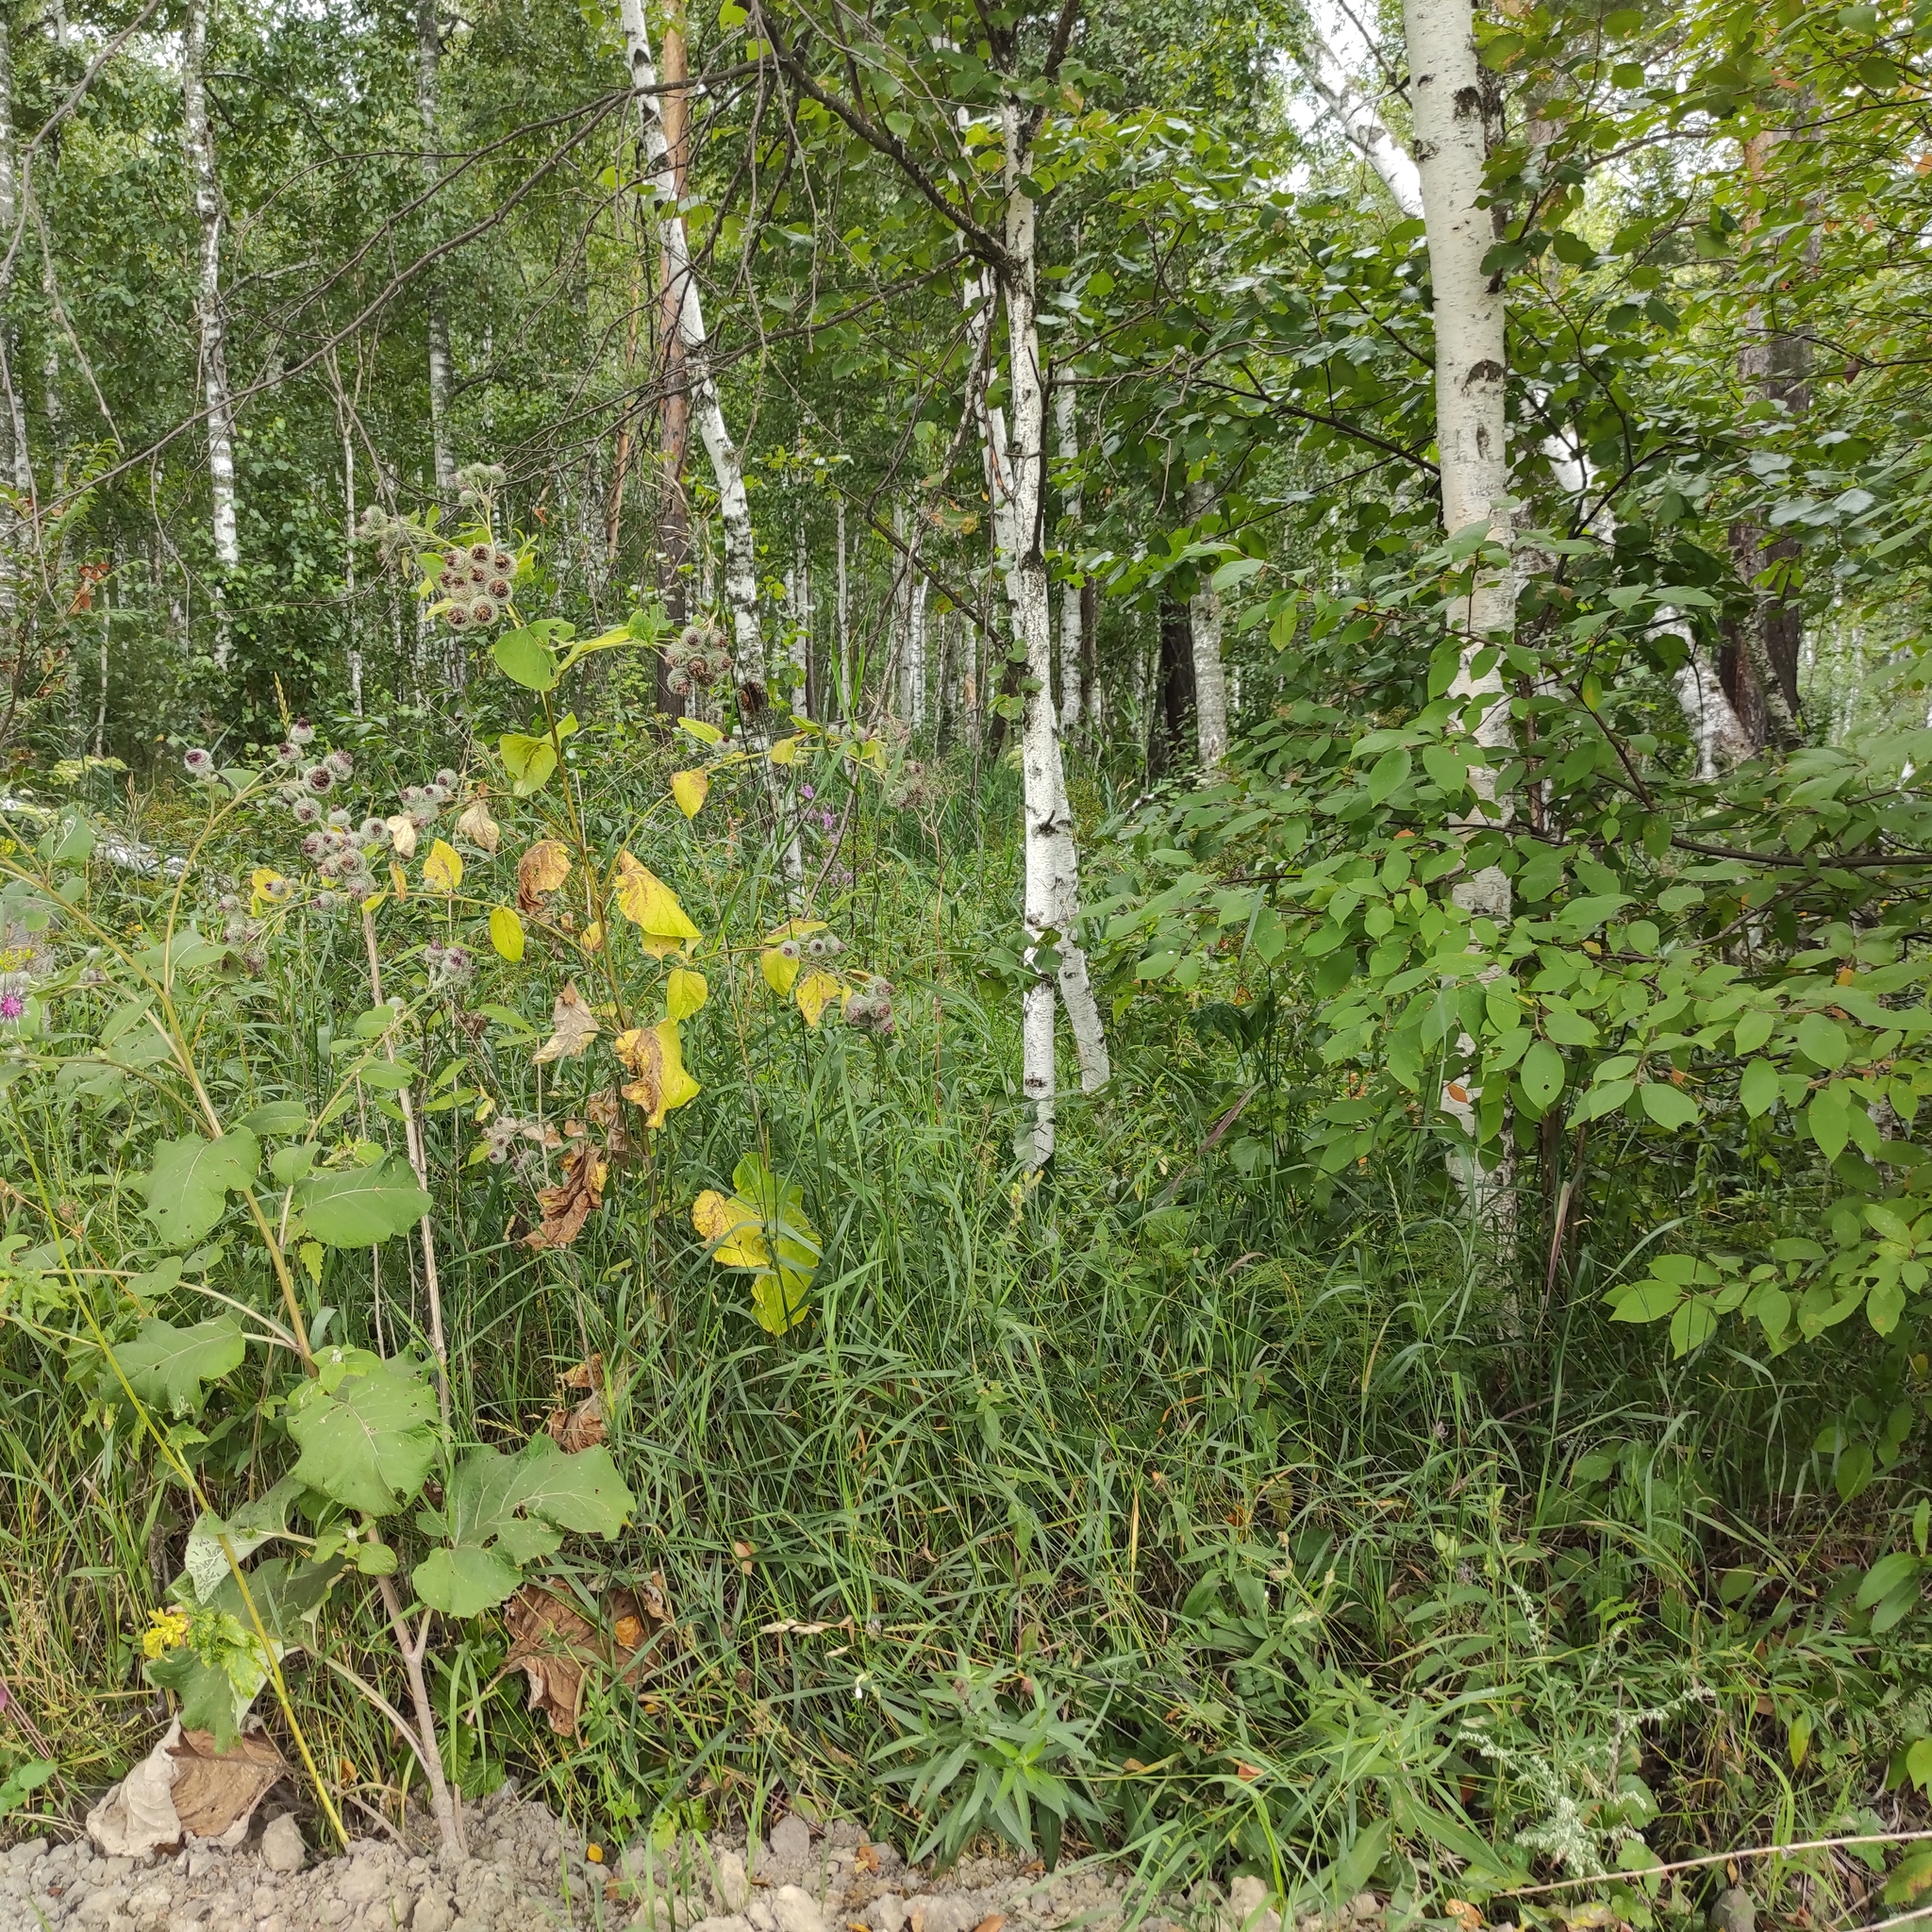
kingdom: Plantae
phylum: Tracheophyta
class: Magnoliopsida
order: Fagales
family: Betulaceae
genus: Betula
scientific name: Betula pubescens
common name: Downy birch
